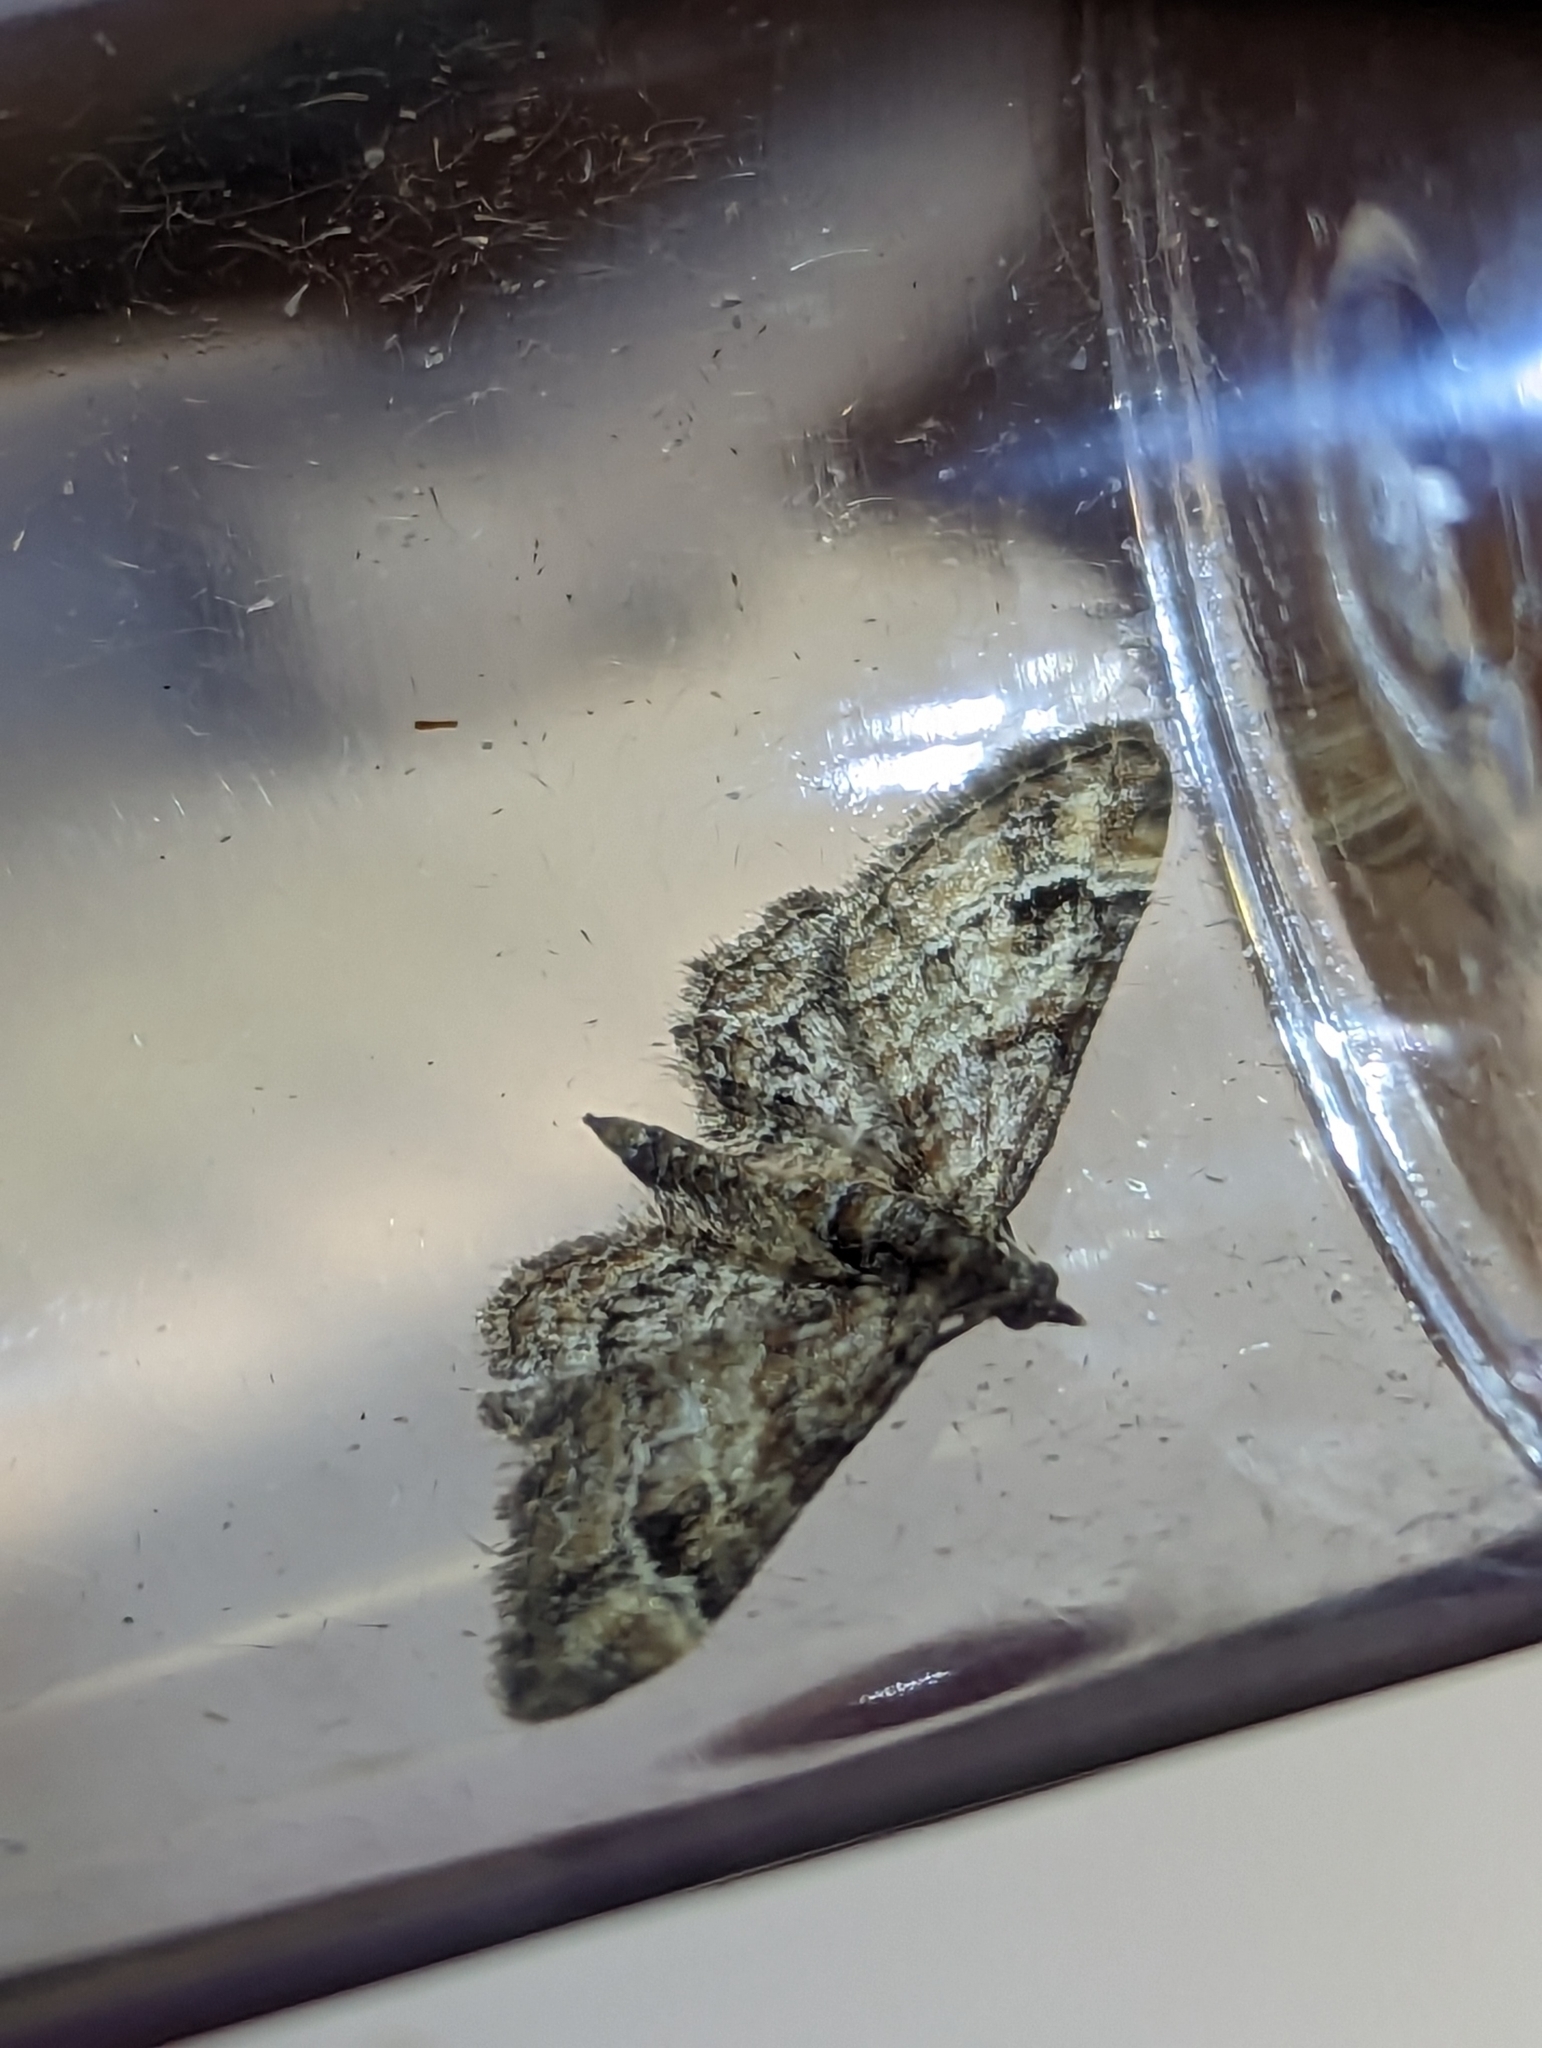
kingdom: Animalia
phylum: Arthropoda
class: Insecta
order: Lepidoptera
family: Geometridae
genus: Gymnoscelis
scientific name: Gymnoscelis rufifasciata
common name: Double-striped pug
